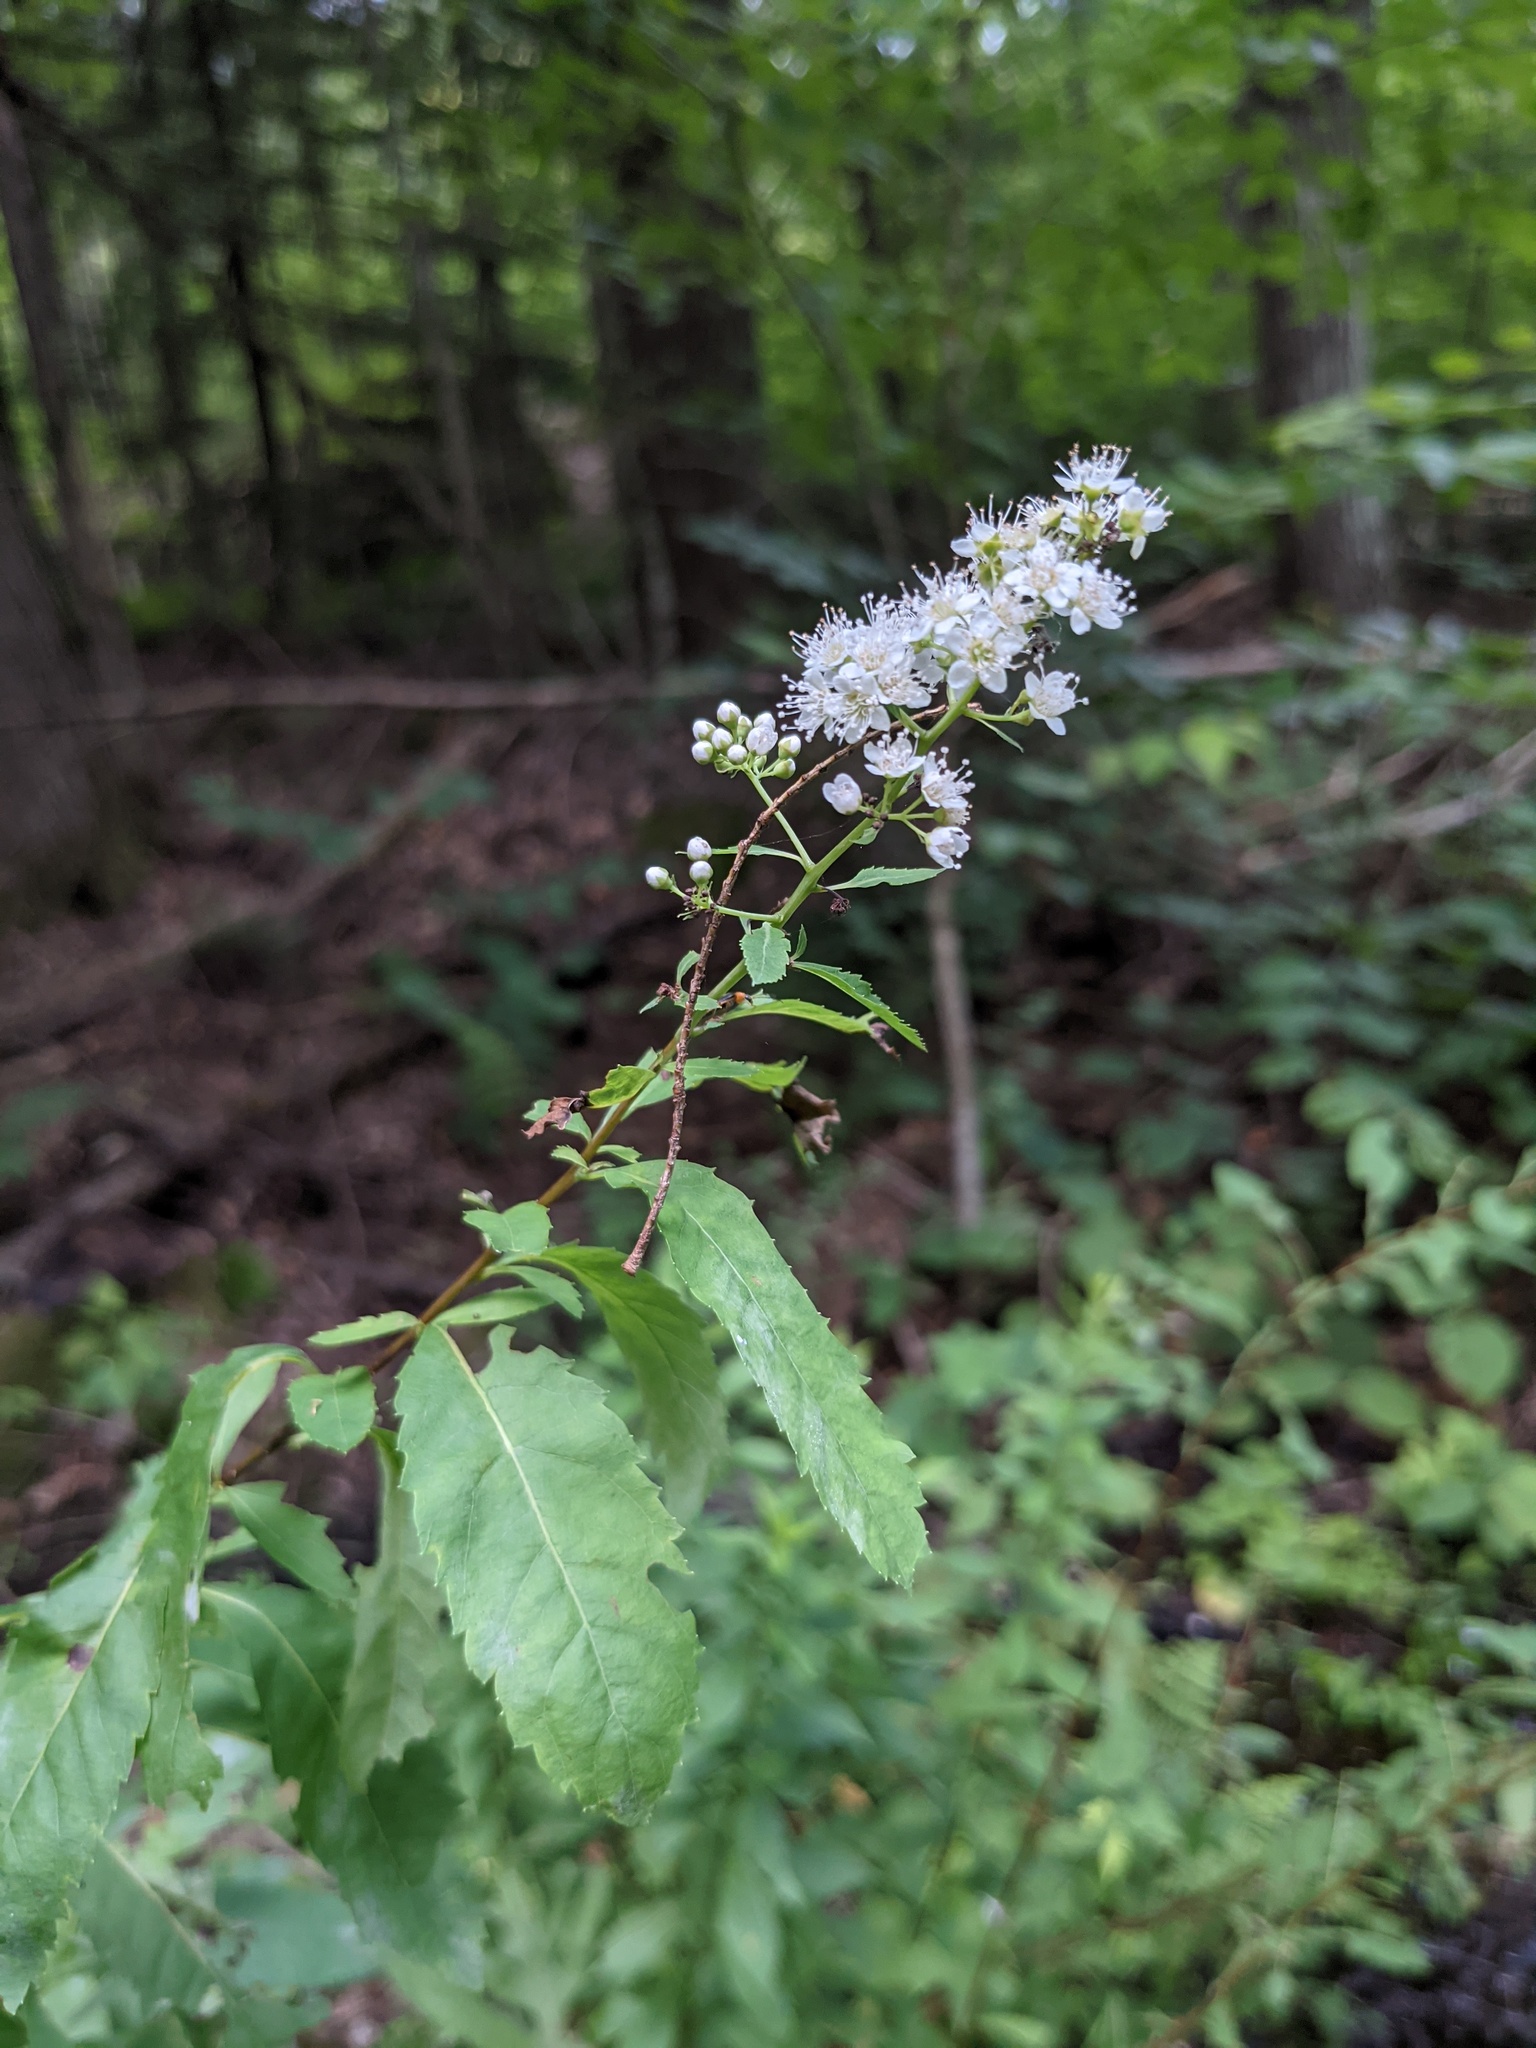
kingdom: Plantae
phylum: Tracheophyta
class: Magnoliopsida
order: Rosales
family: Rosaceae
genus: Spiraea
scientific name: Spiraea alba
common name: Pale bridewort
